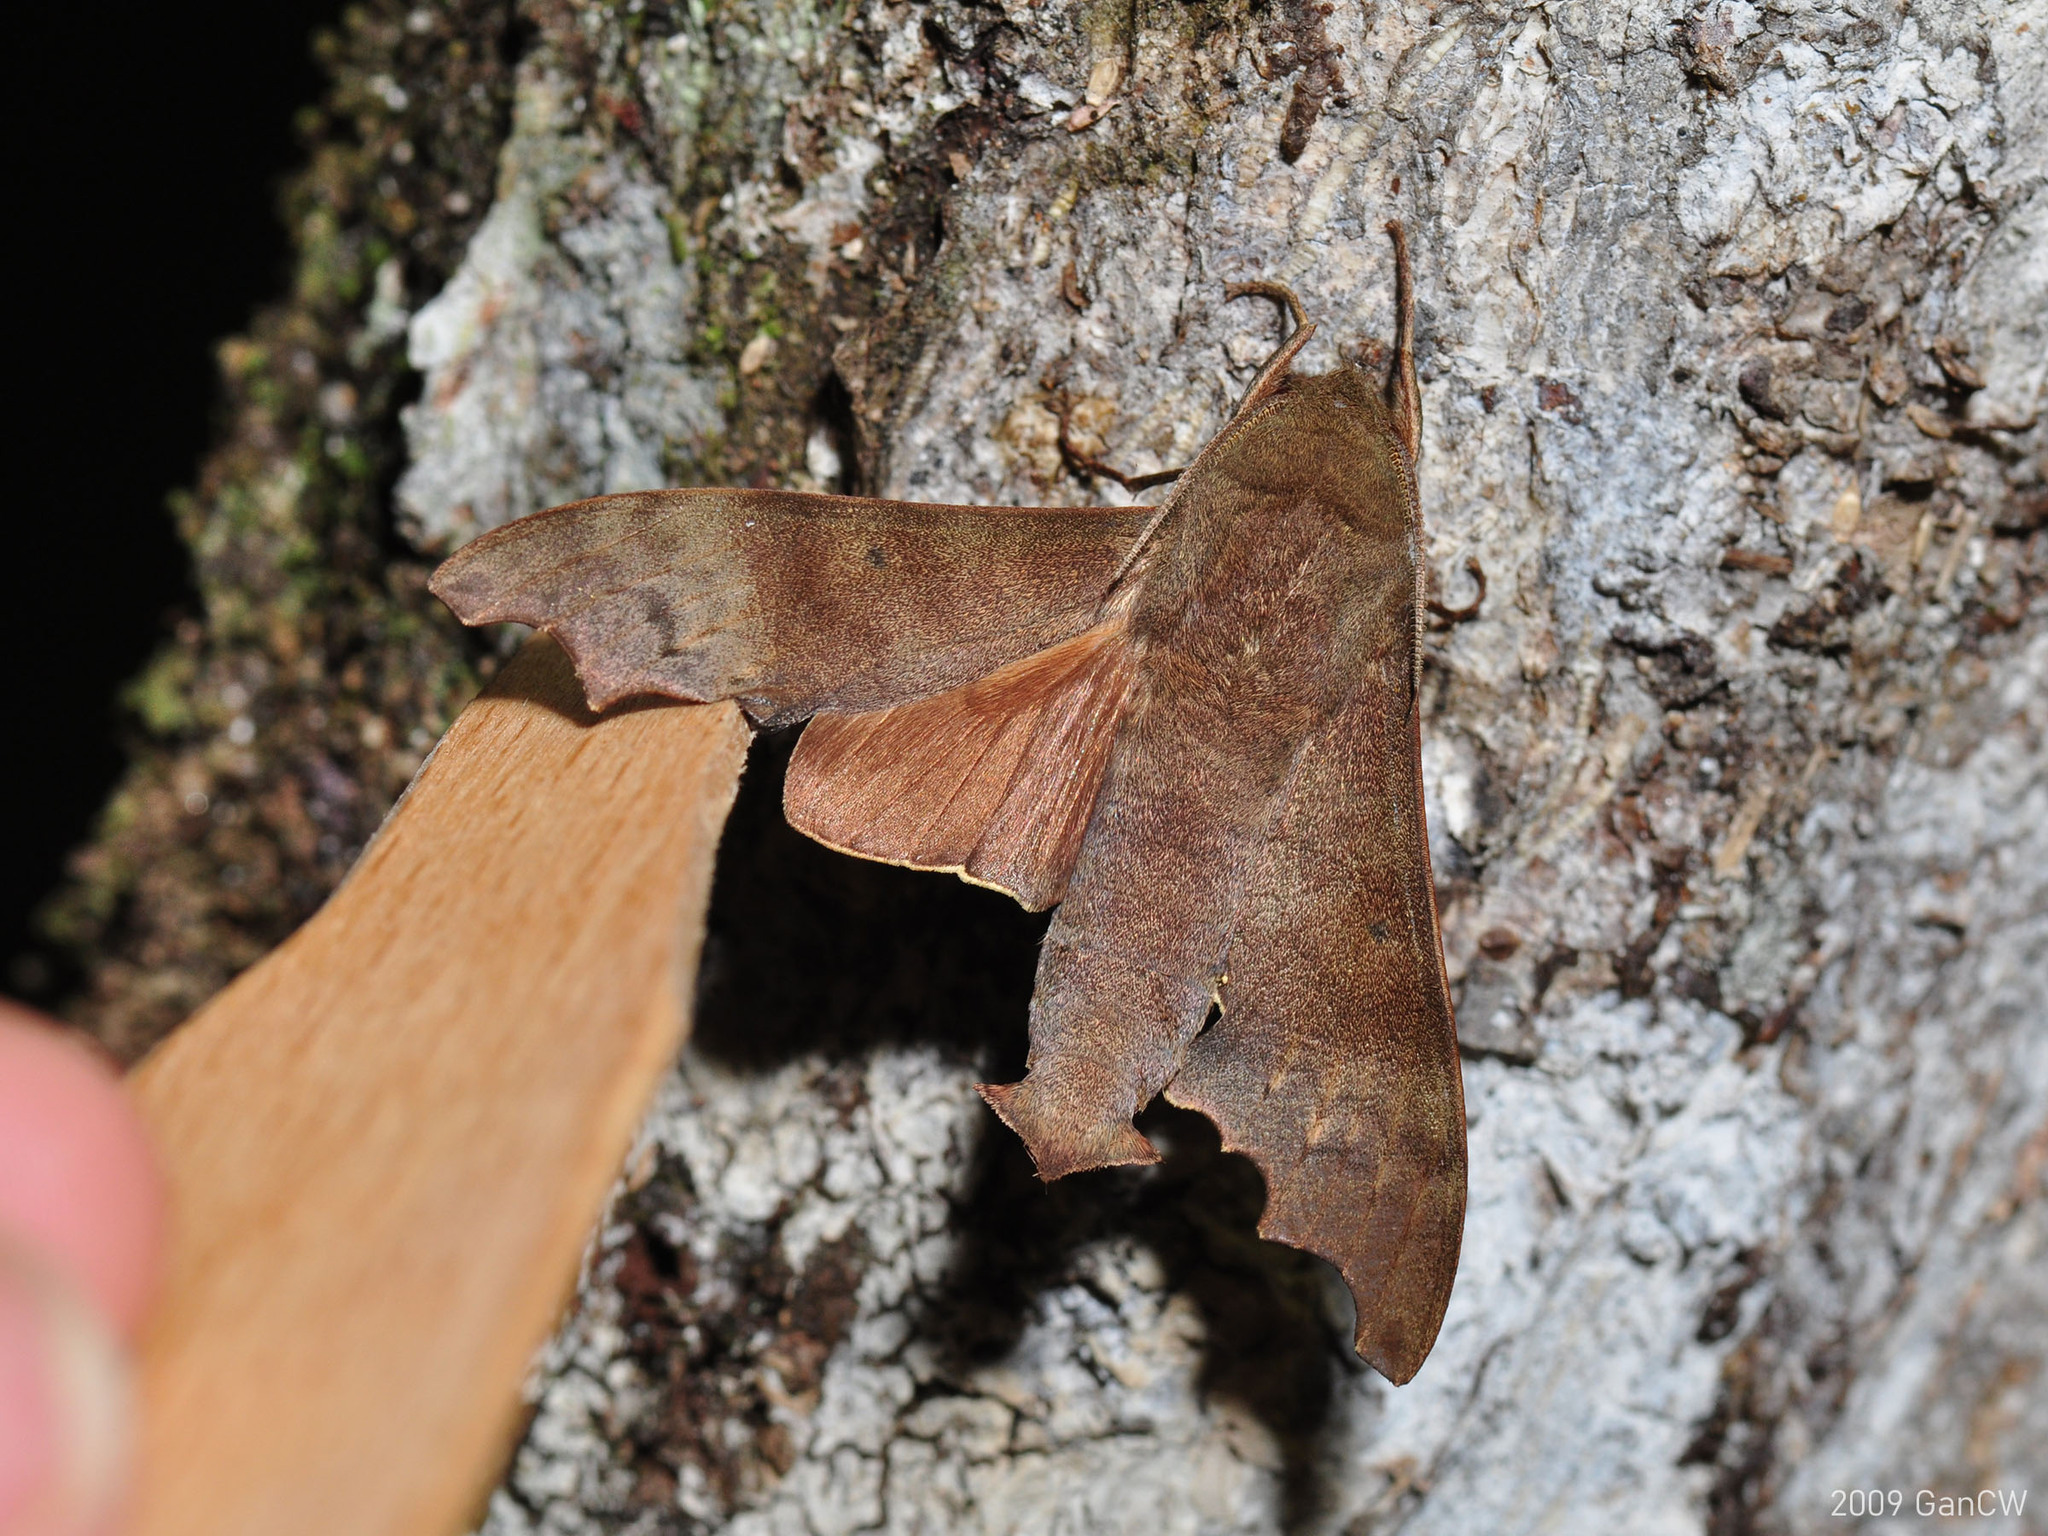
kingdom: Animalia
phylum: Arthropoda
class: Insecta
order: Lepidoptera
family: Sphingidae
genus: Cypa
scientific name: Cypa decolor
